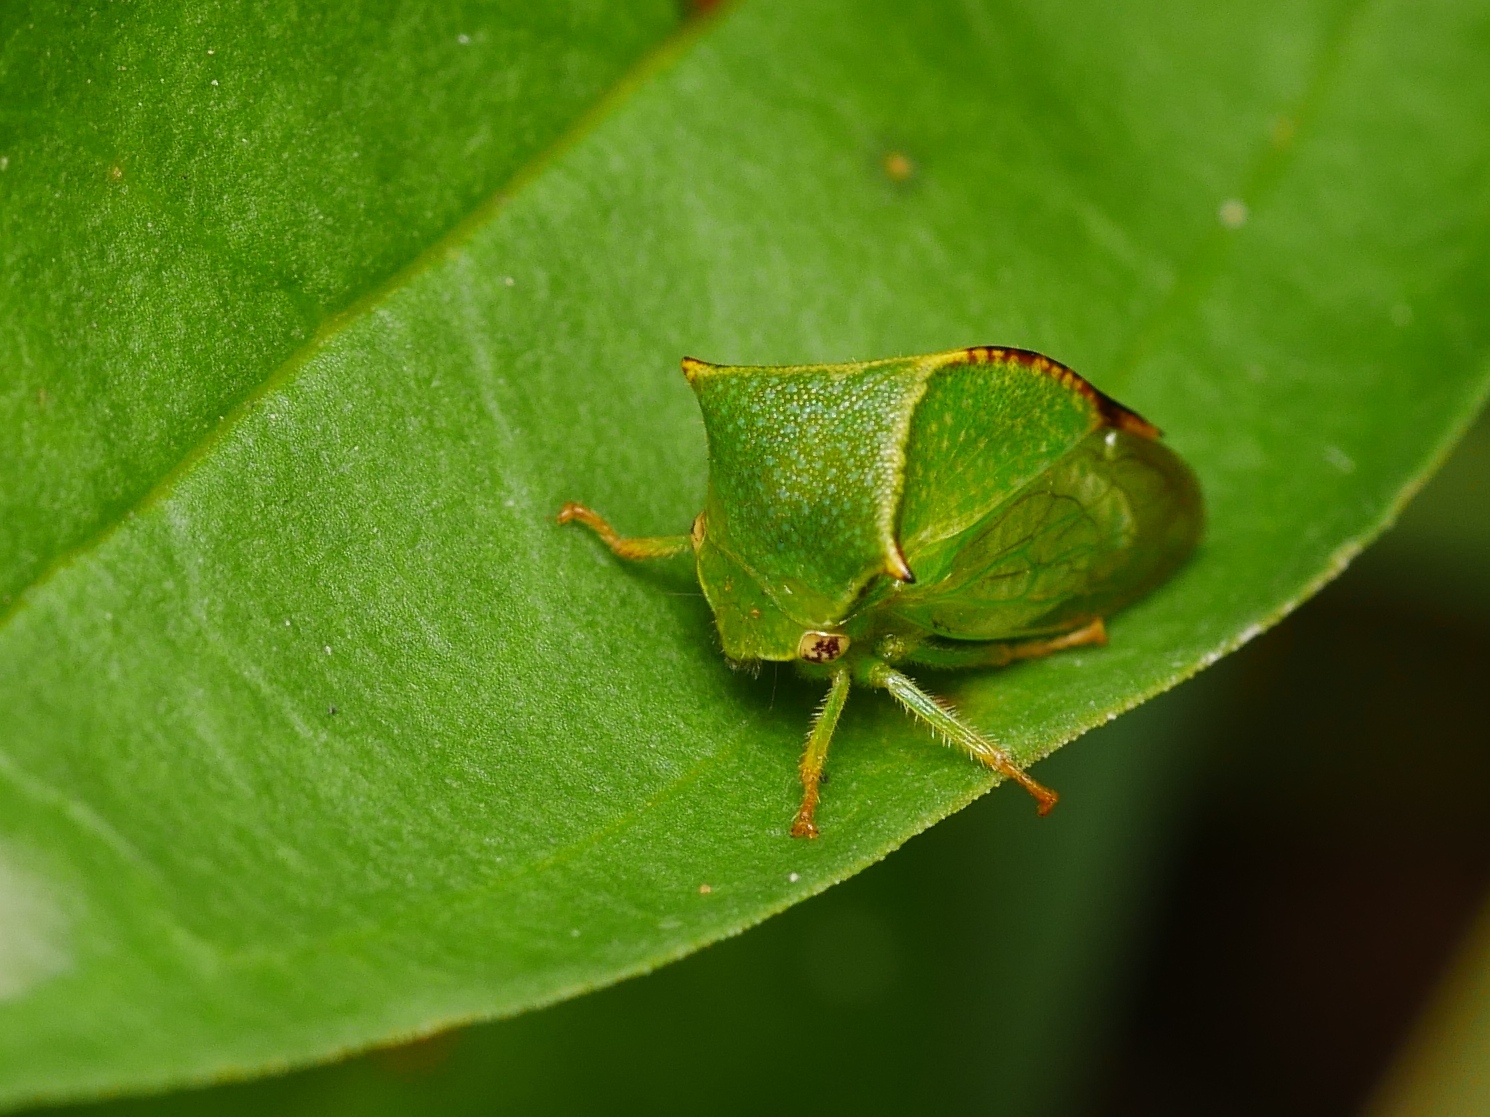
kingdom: Animalia
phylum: Arthropoda
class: Insecta
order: Hemiptera
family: Membracidae
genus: Stictocephala
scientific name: Stictocephala bisonia
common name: American buffalo treehopper
